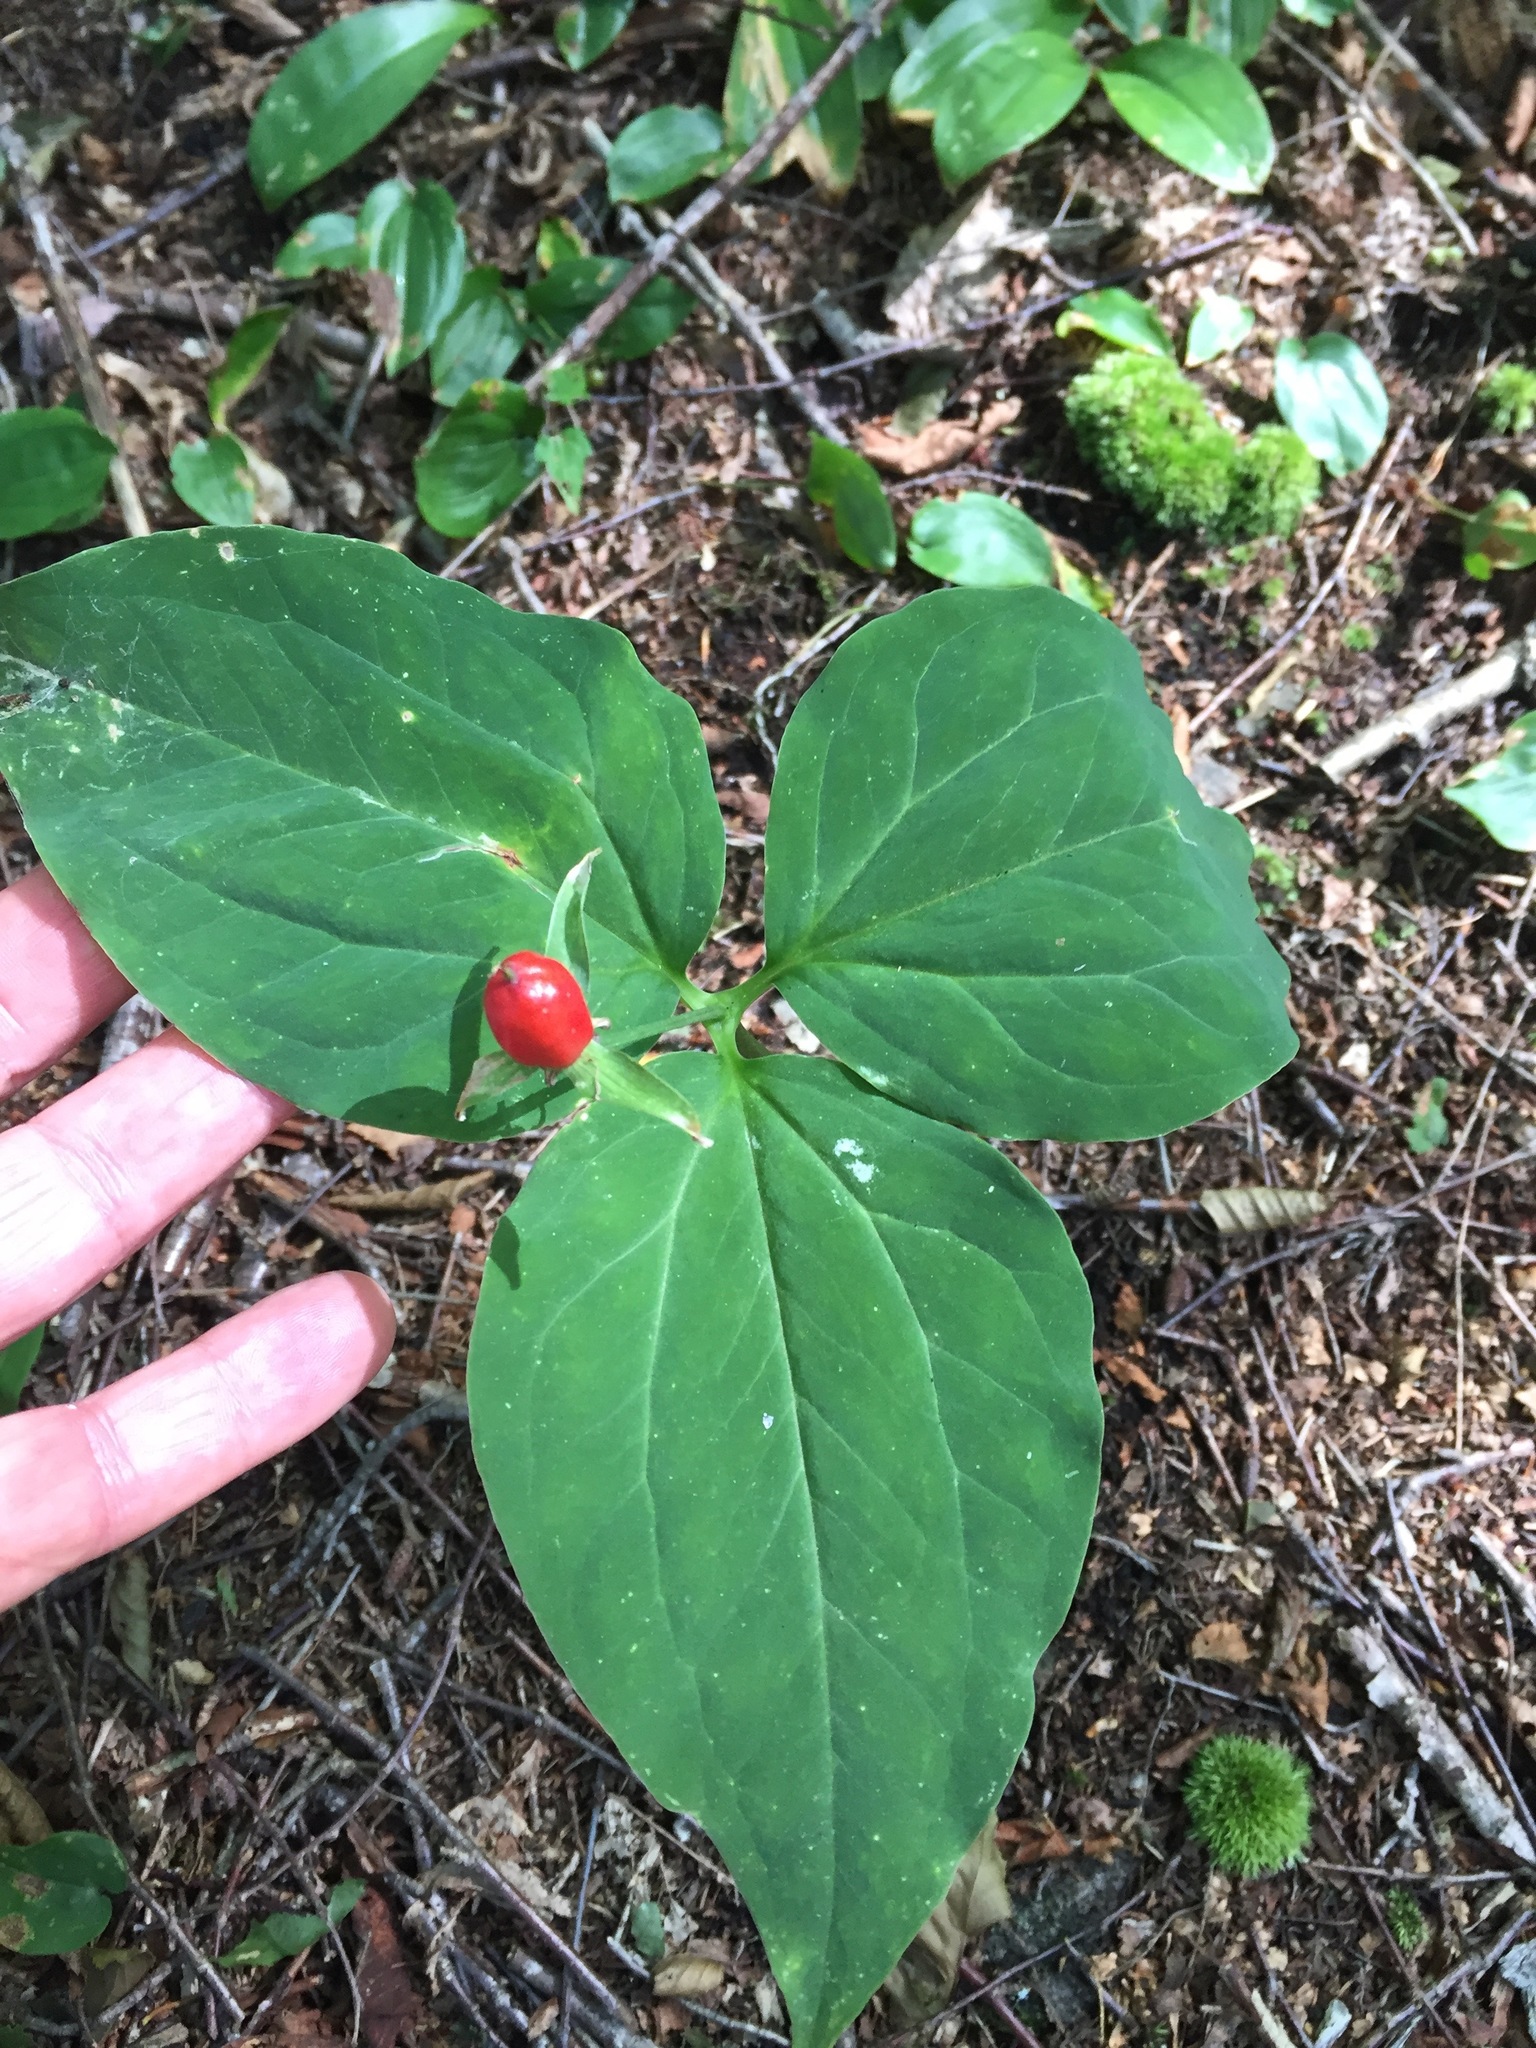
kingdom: Plantae
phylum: Tracheophyta
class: Liliopsida
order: Liliales
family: Melanthiaceae
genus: Trillium
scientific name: Trillium undulatum
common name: Paint trillium
